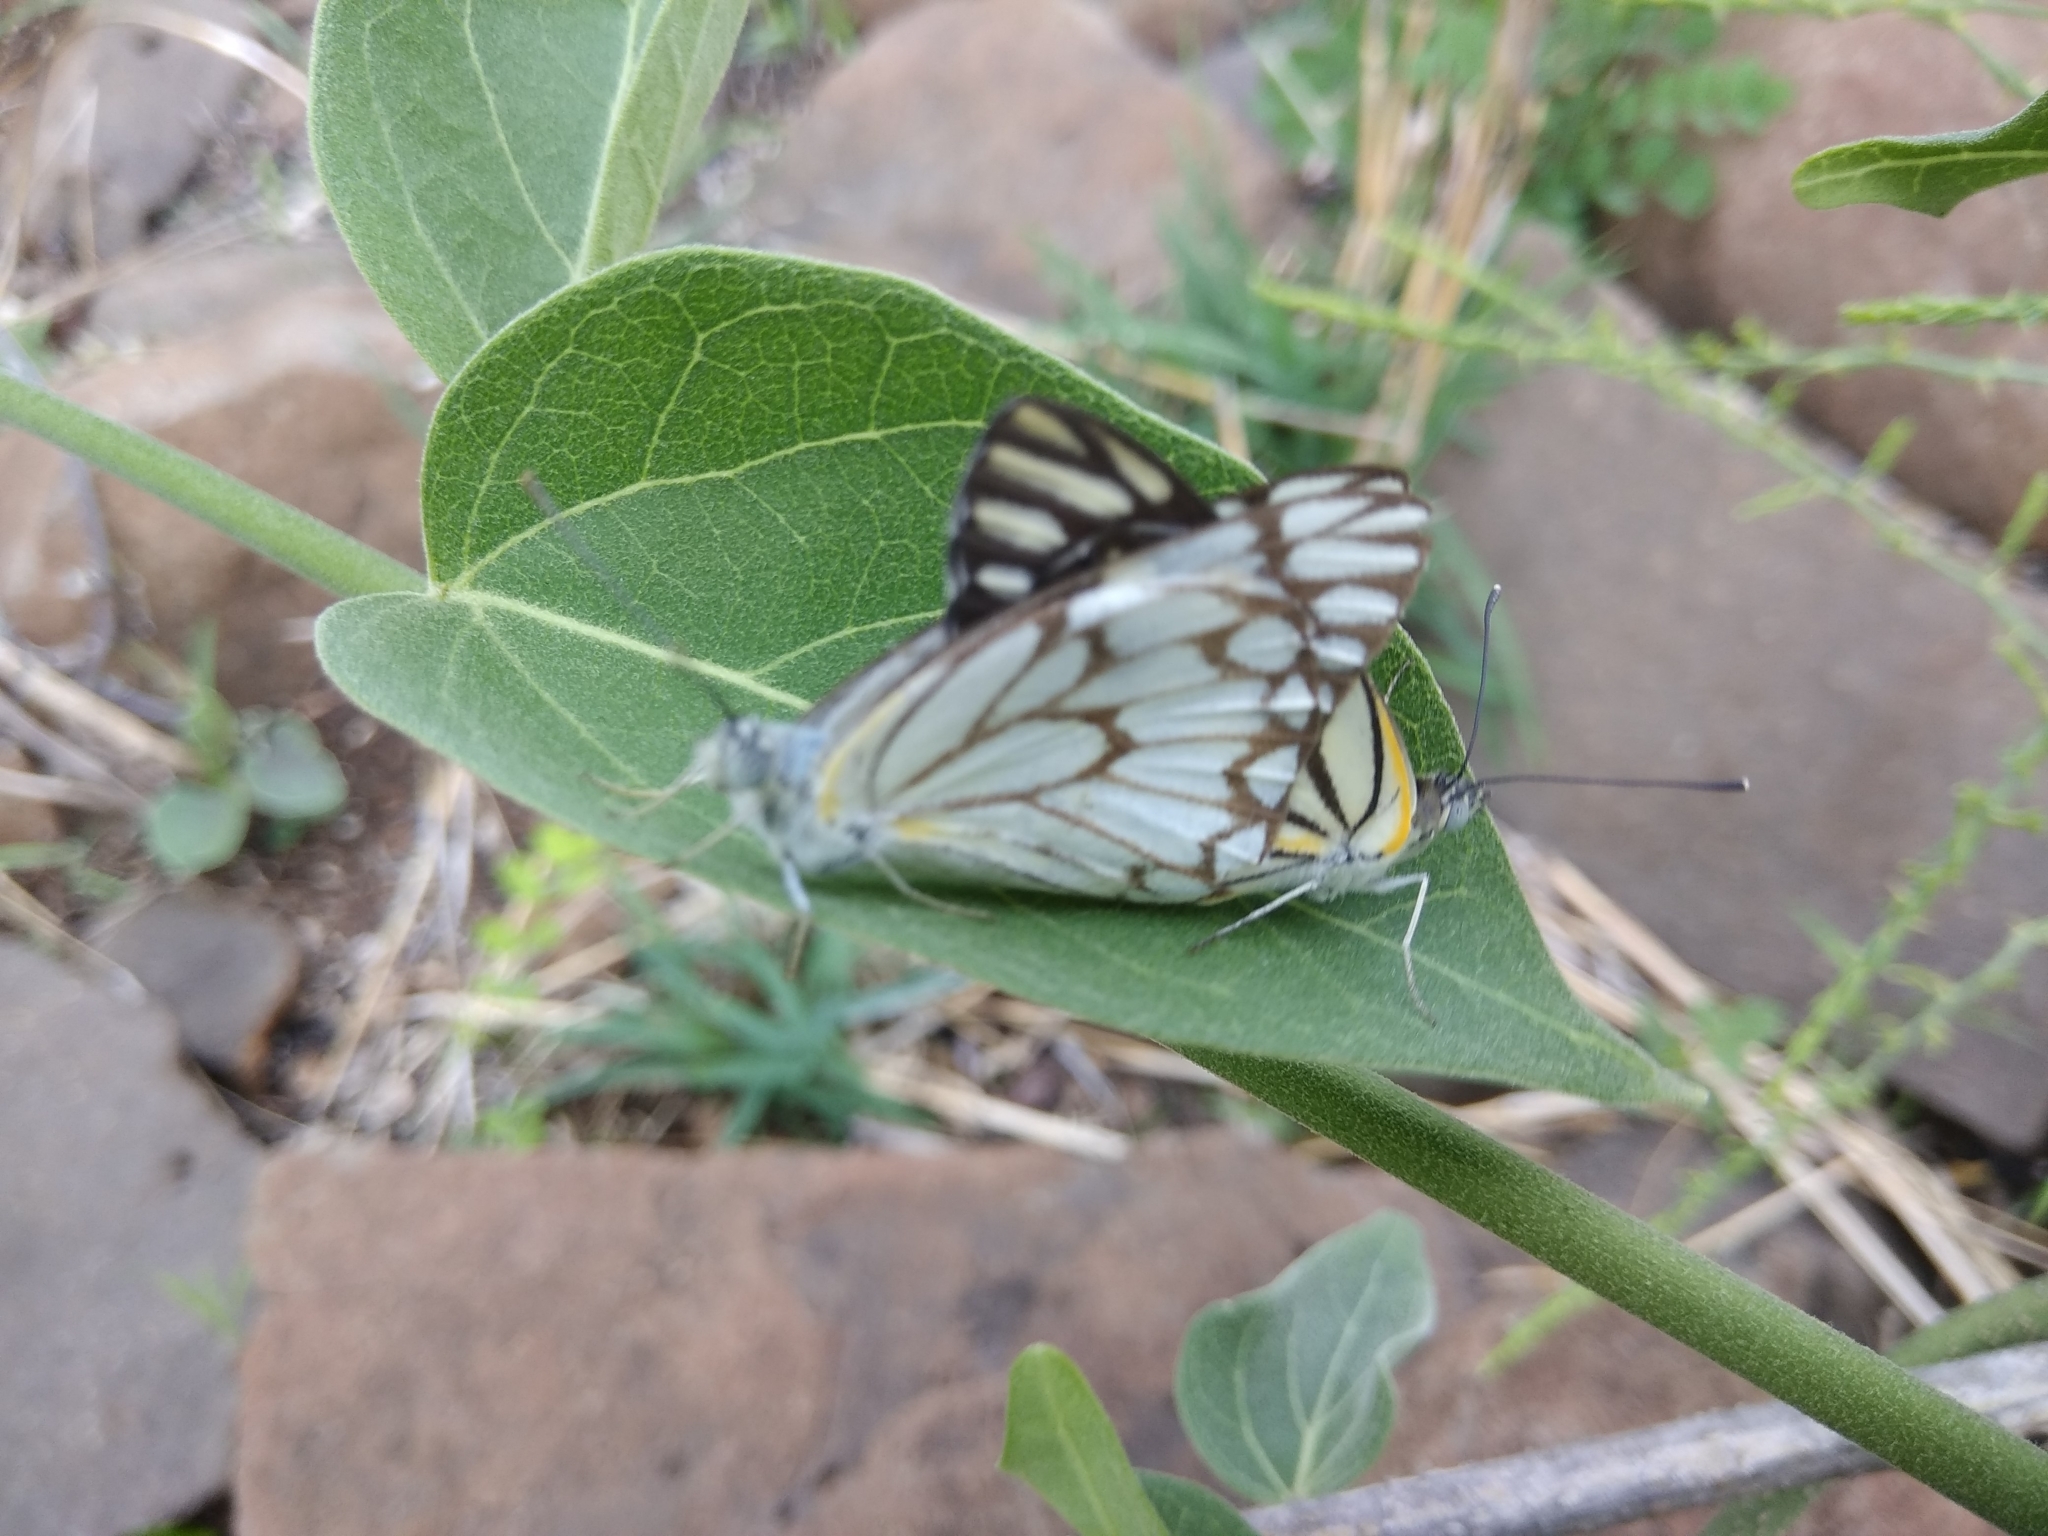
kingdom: Animalia
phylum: Arthropoda
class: Insecta
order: Lepidoptera
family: Pieridae
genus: Belenois
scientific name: Belenois aurota
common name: Brown-veined white
